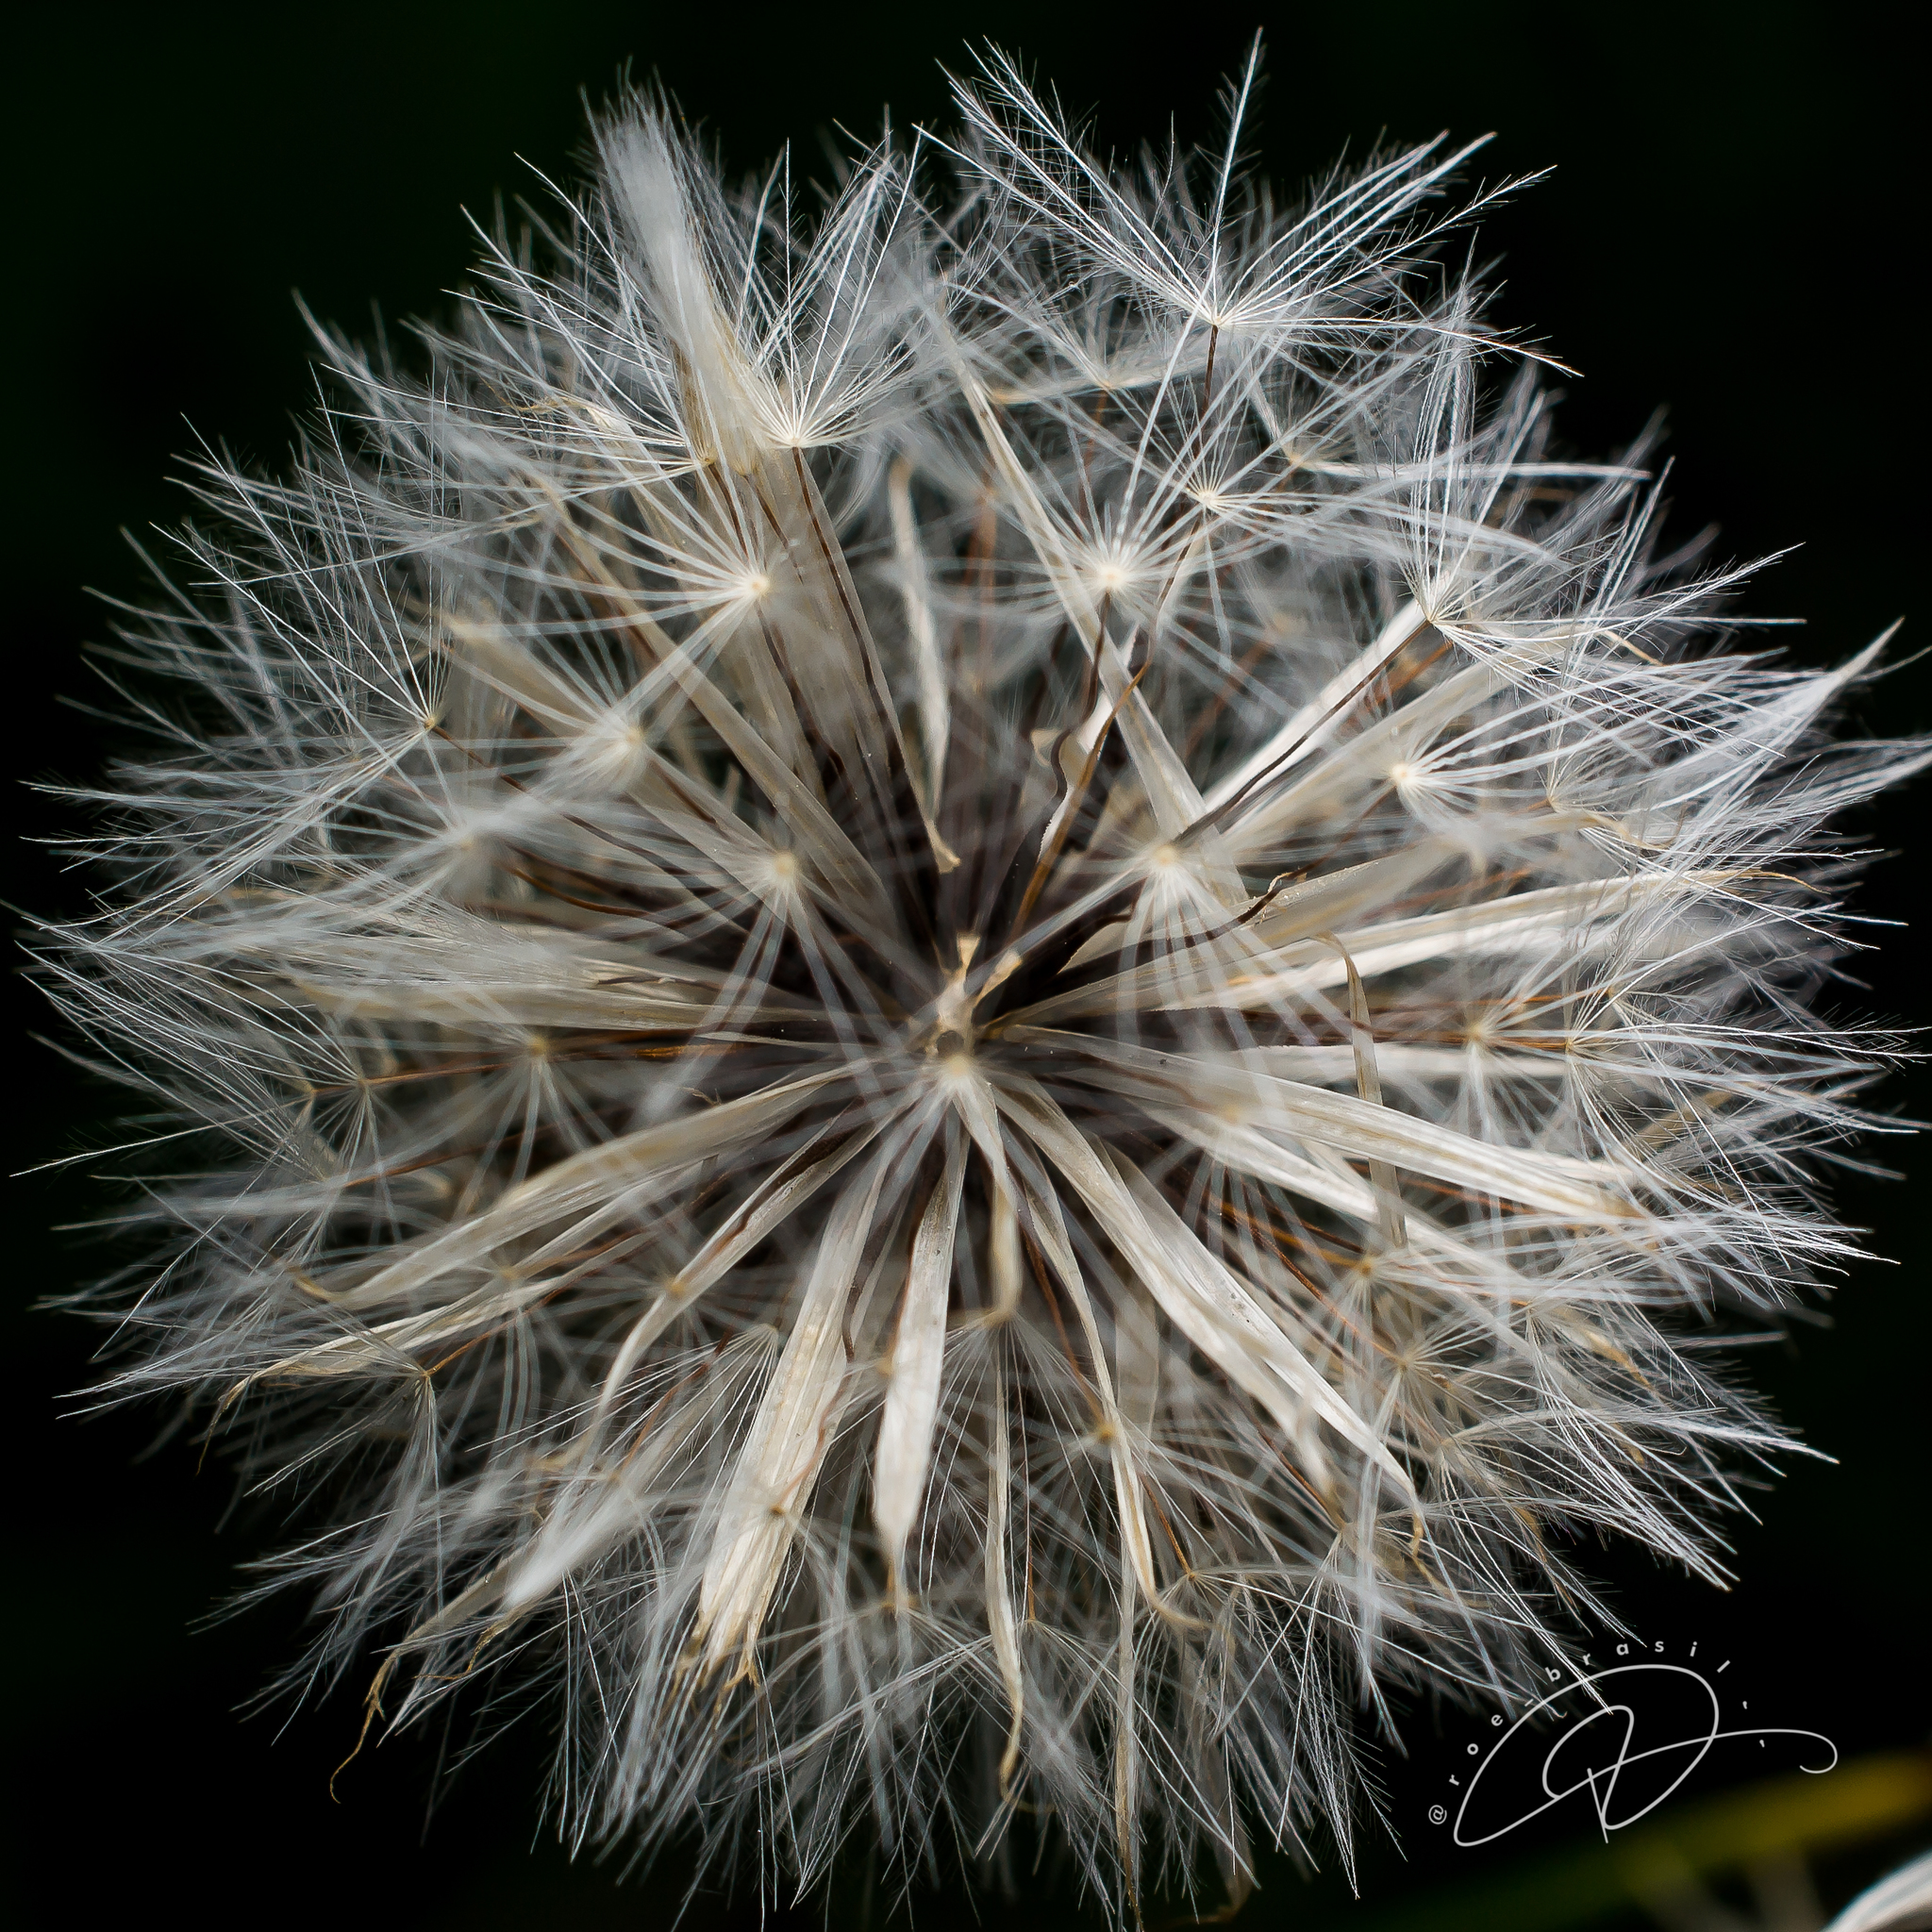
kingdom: Plantae
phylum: Tracheophyta
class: Magnoliopsida
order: Asterales
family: Asteraceae
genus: Hypochaeris
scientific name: Hypochaeris chillensis
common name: Brazilian cat's ear
